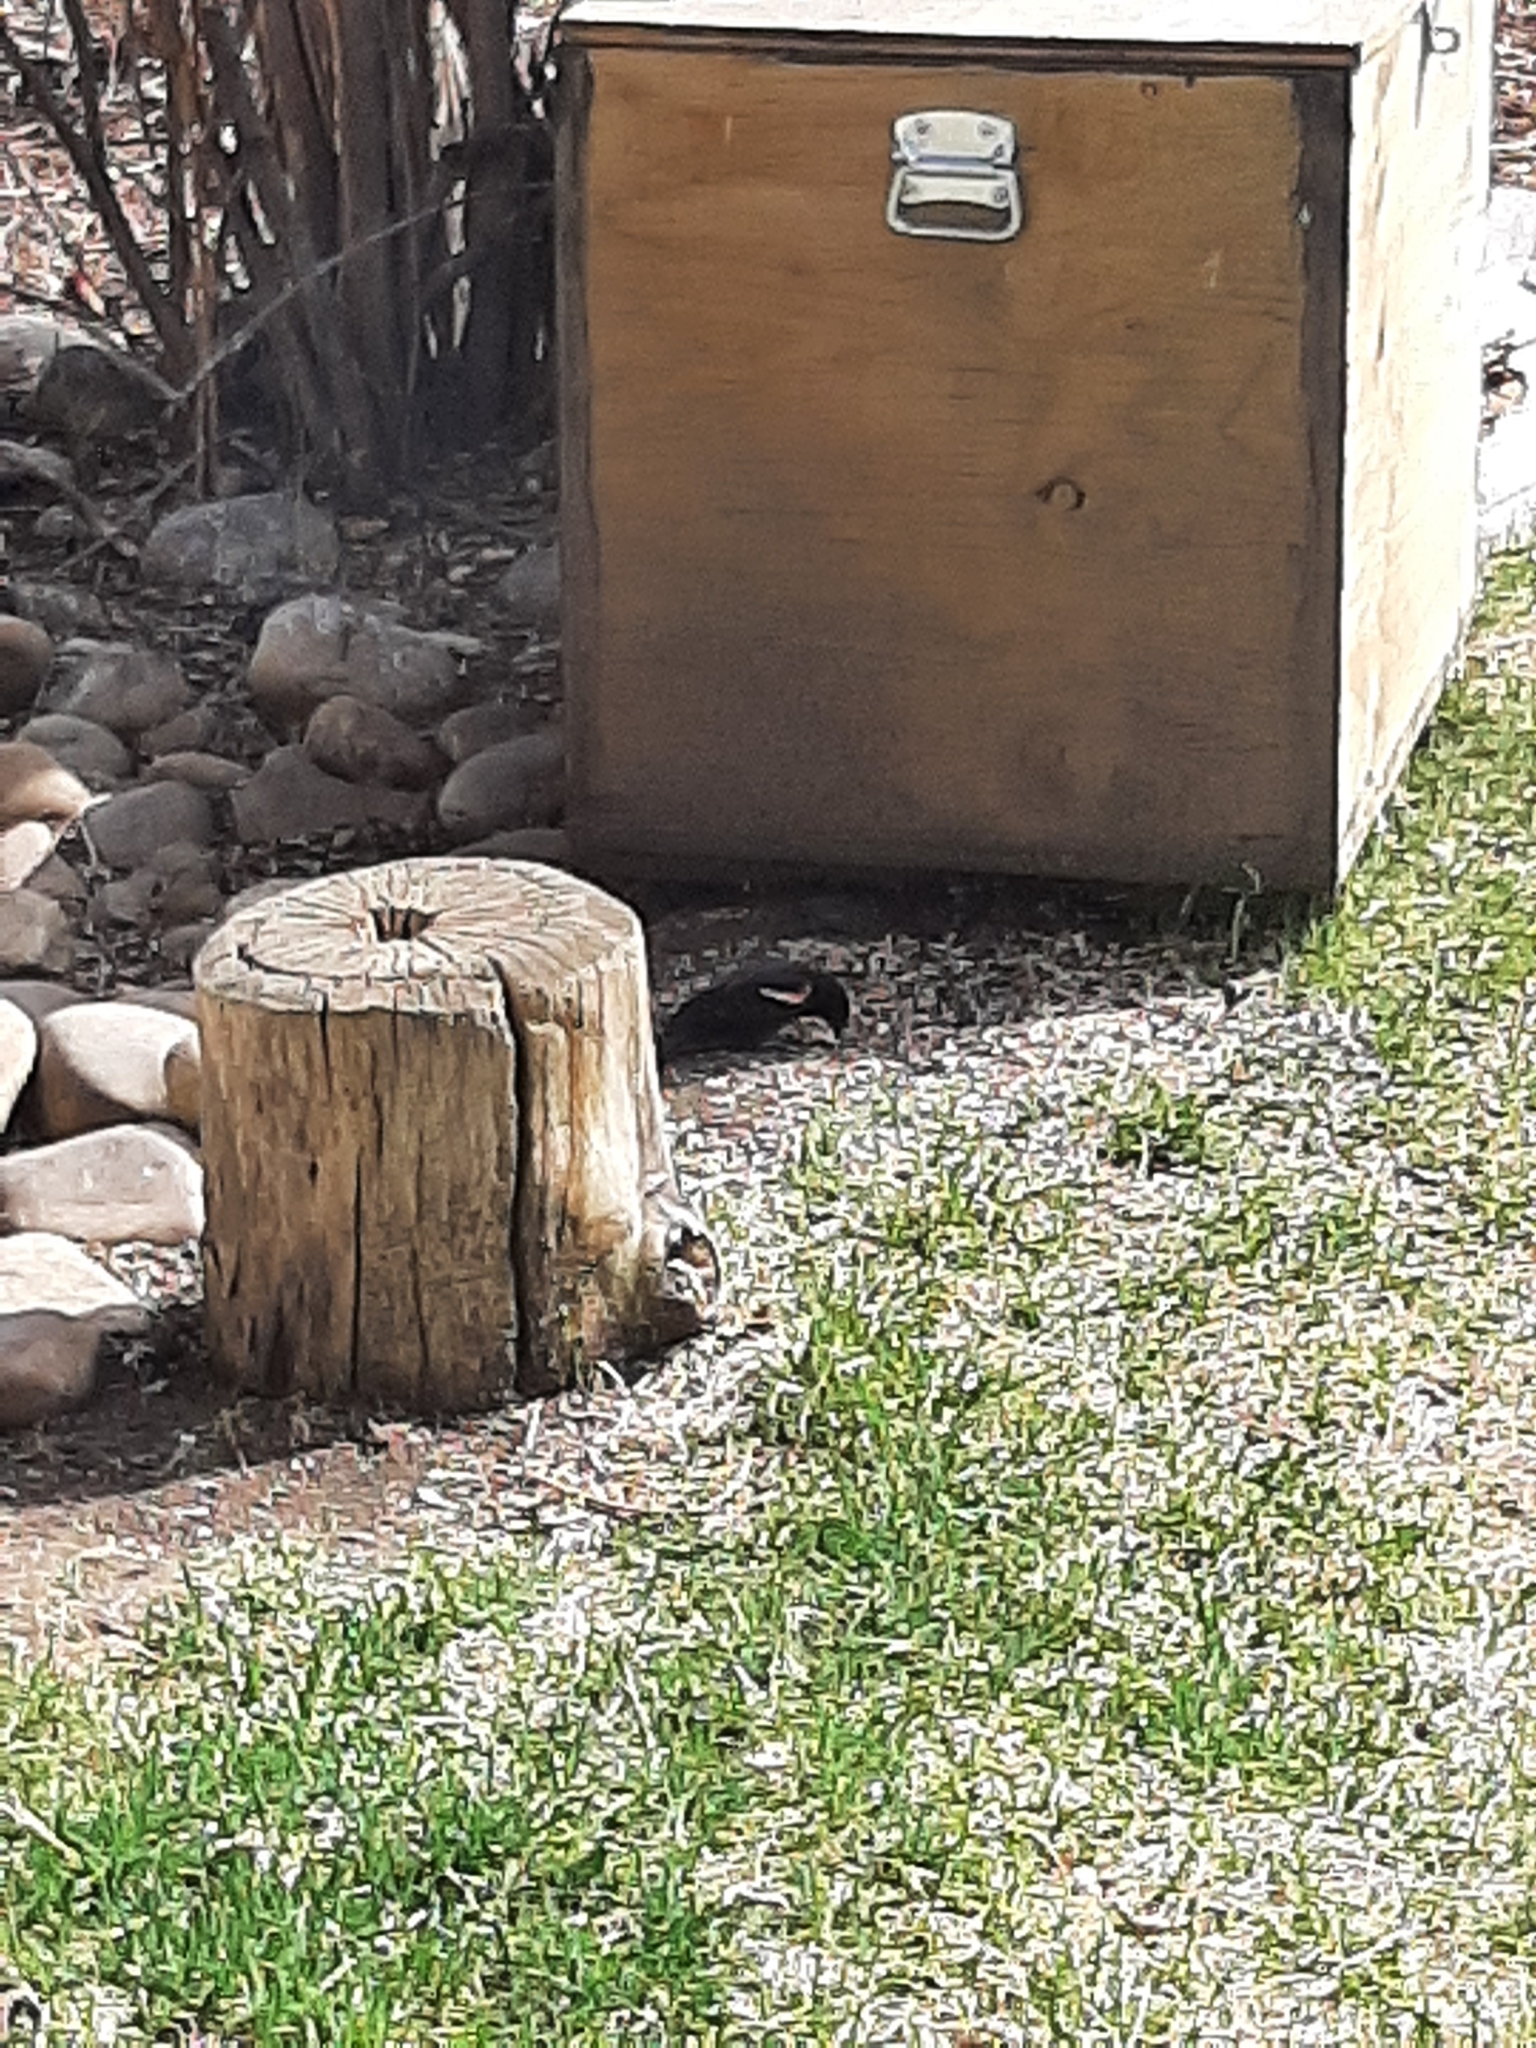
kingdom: Animalia
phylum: Chordata
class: Aves
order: Passeriformes
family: Icteridae
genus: Agelaius
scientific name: Agelaius phoeniceus
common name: Red-winged blackbird
